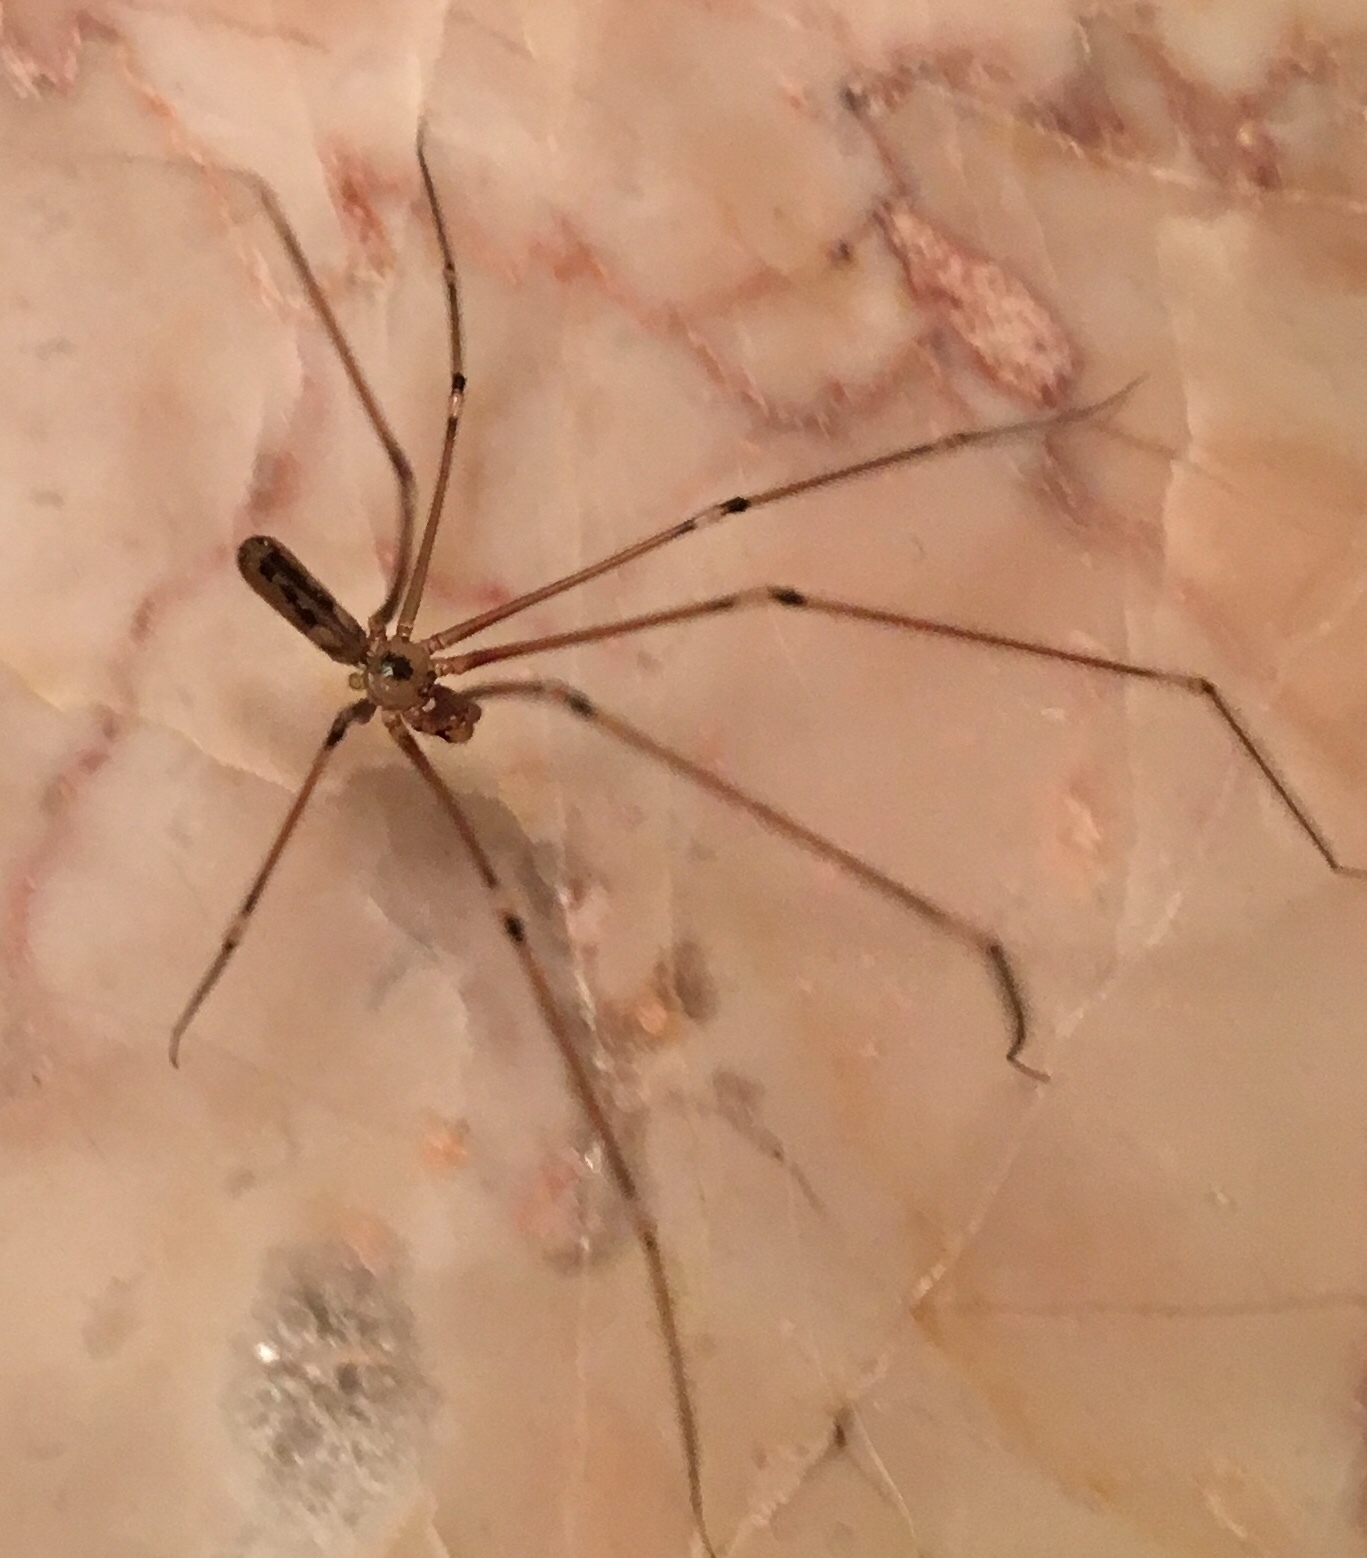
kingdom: Animalia
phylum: Arthropoda
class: Arachnida
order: Araneae
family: Pholcidae
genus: Pholcus
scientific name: Pholcus phalangioides
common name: Longbodied cellar spider
